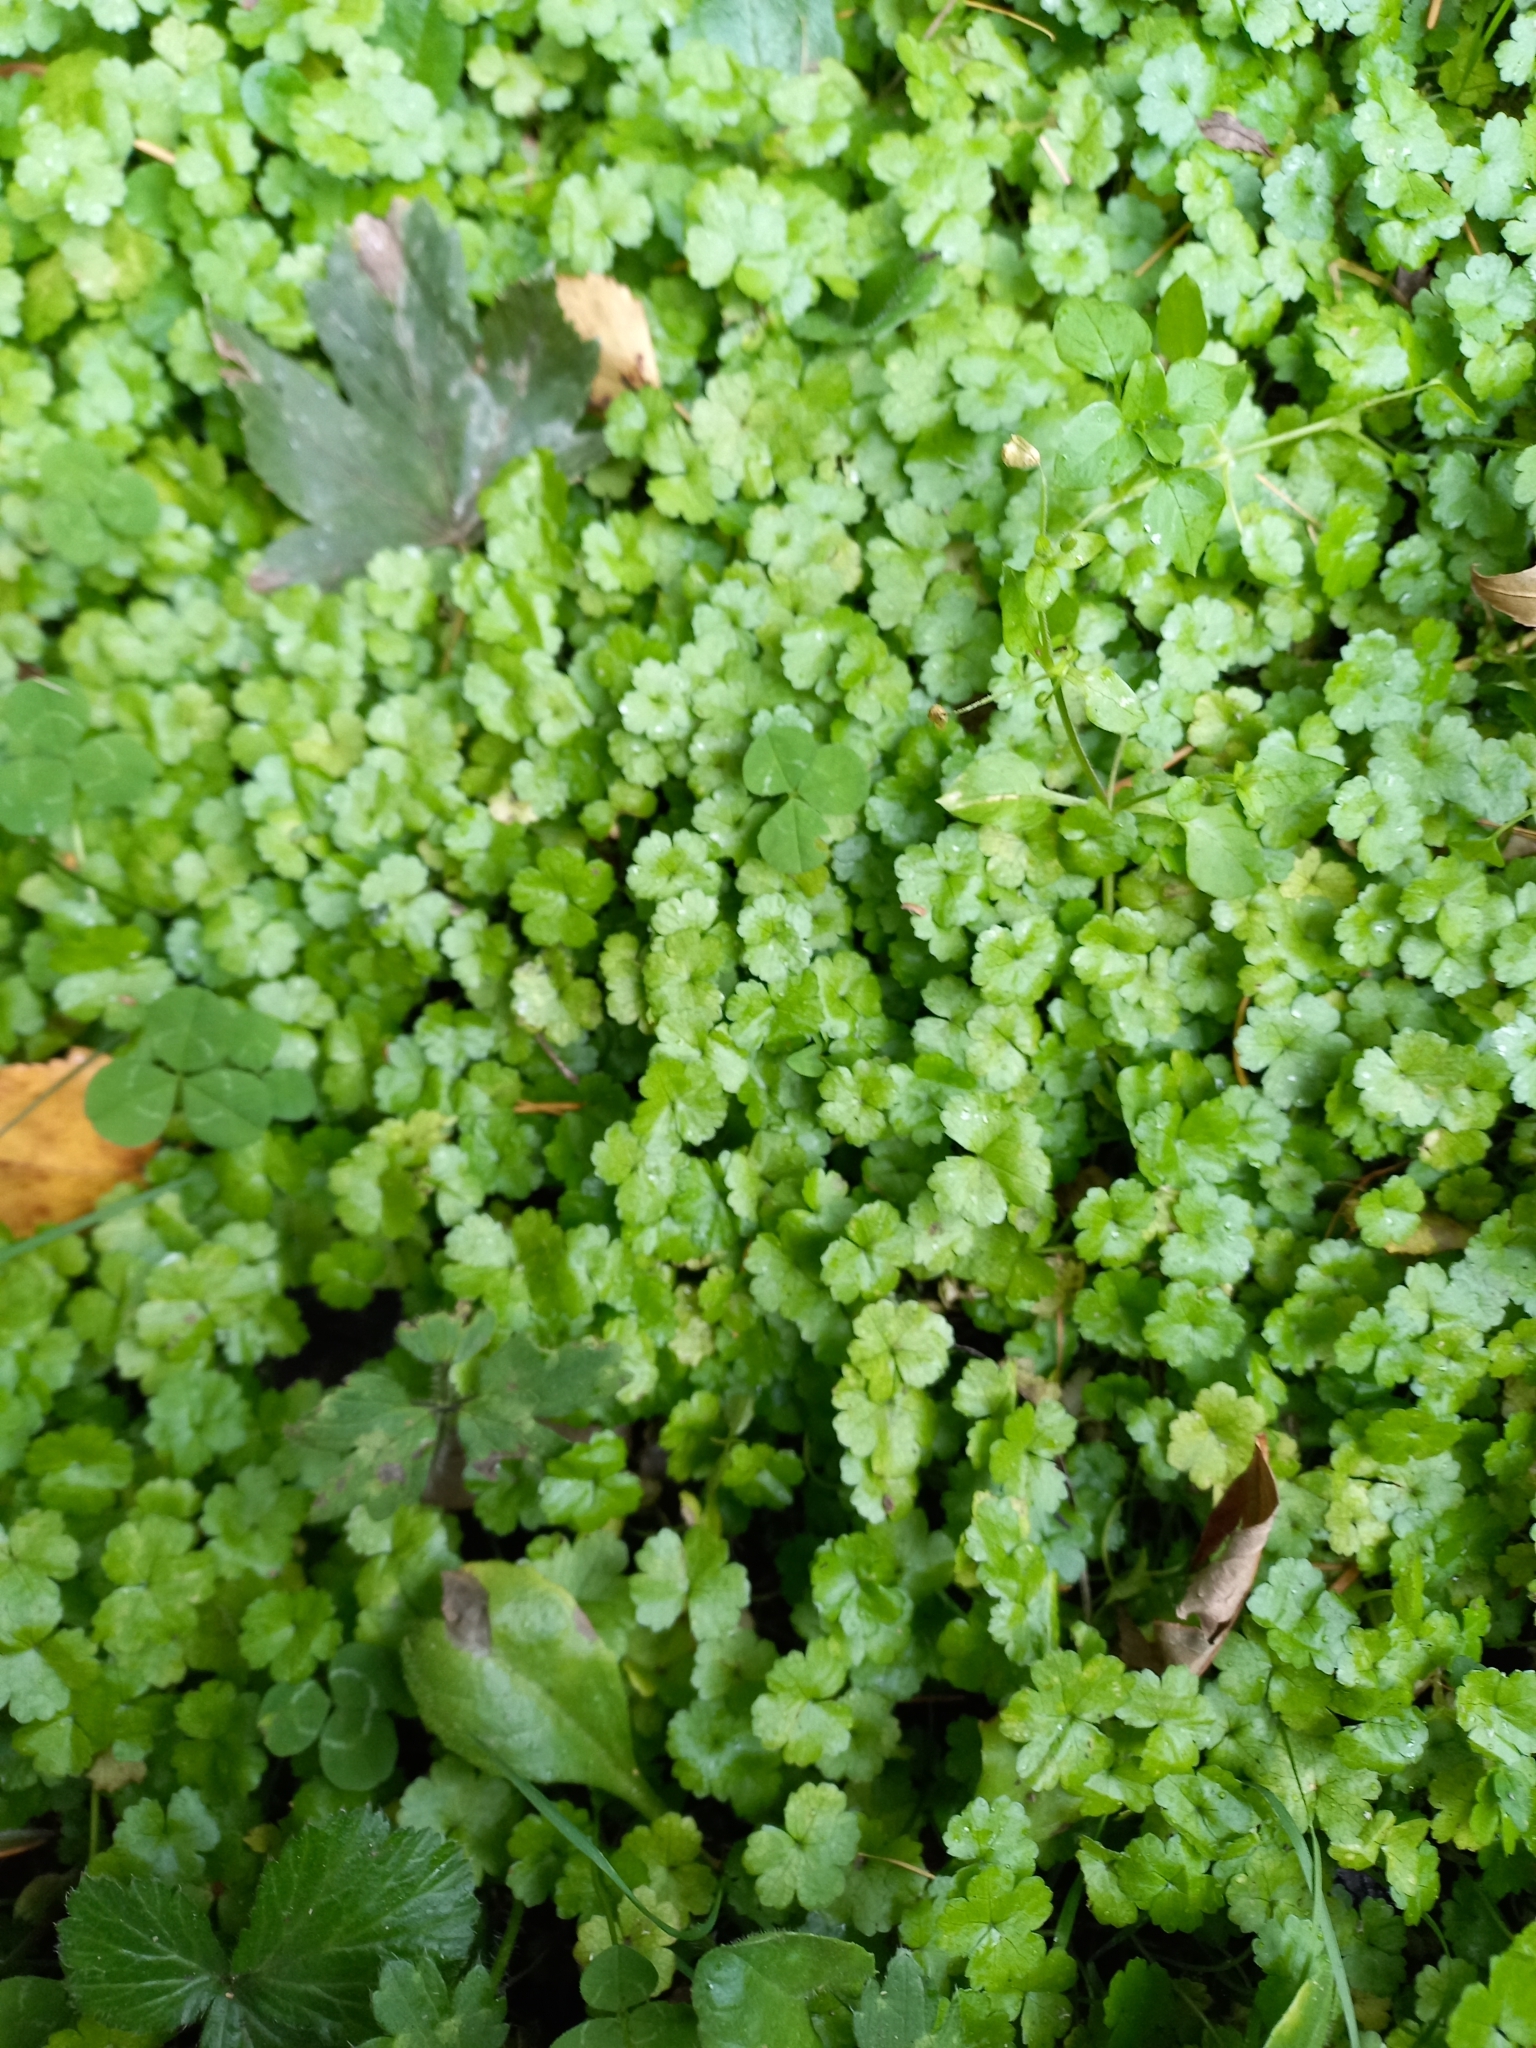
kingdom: Plantae
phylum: Tracheophyta
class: Magnoliopsida
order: Apiales
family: Araliaceae
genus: Hydrocotyle
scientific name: Hydrocotyle heteromeria
